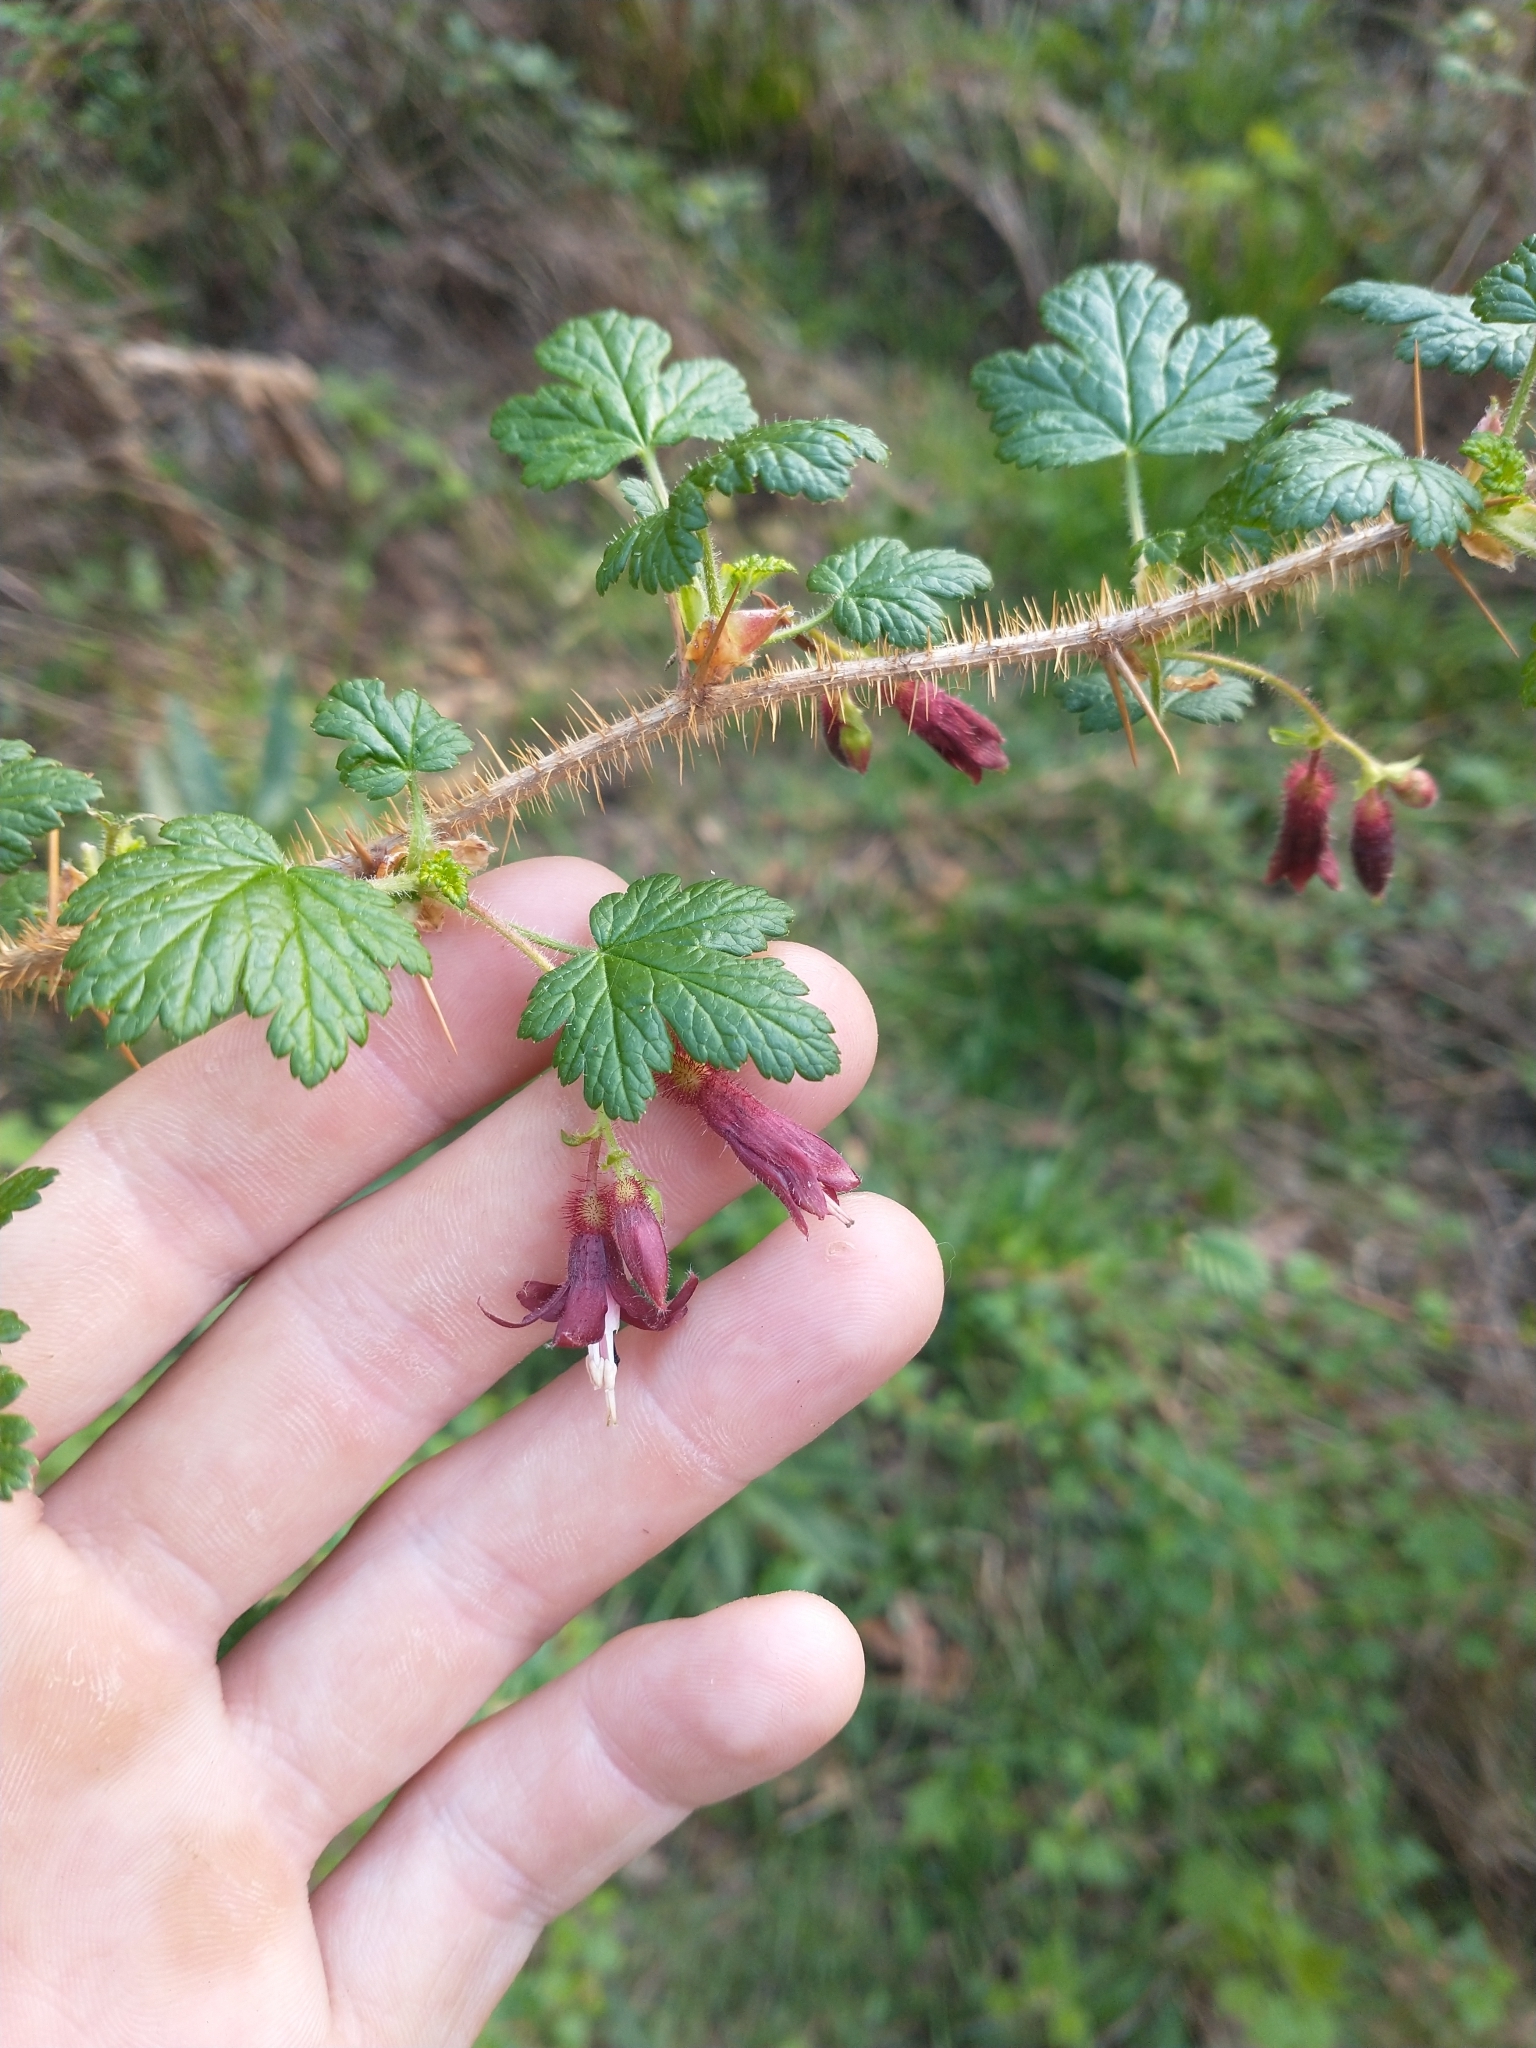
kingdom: Plantae
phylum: Tracheophyta
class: Magnoliopsida
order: Saxifragales
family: Grossulariaceae
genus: Ribes
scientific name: Ribes menziesii
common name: Canyon gooseberry
